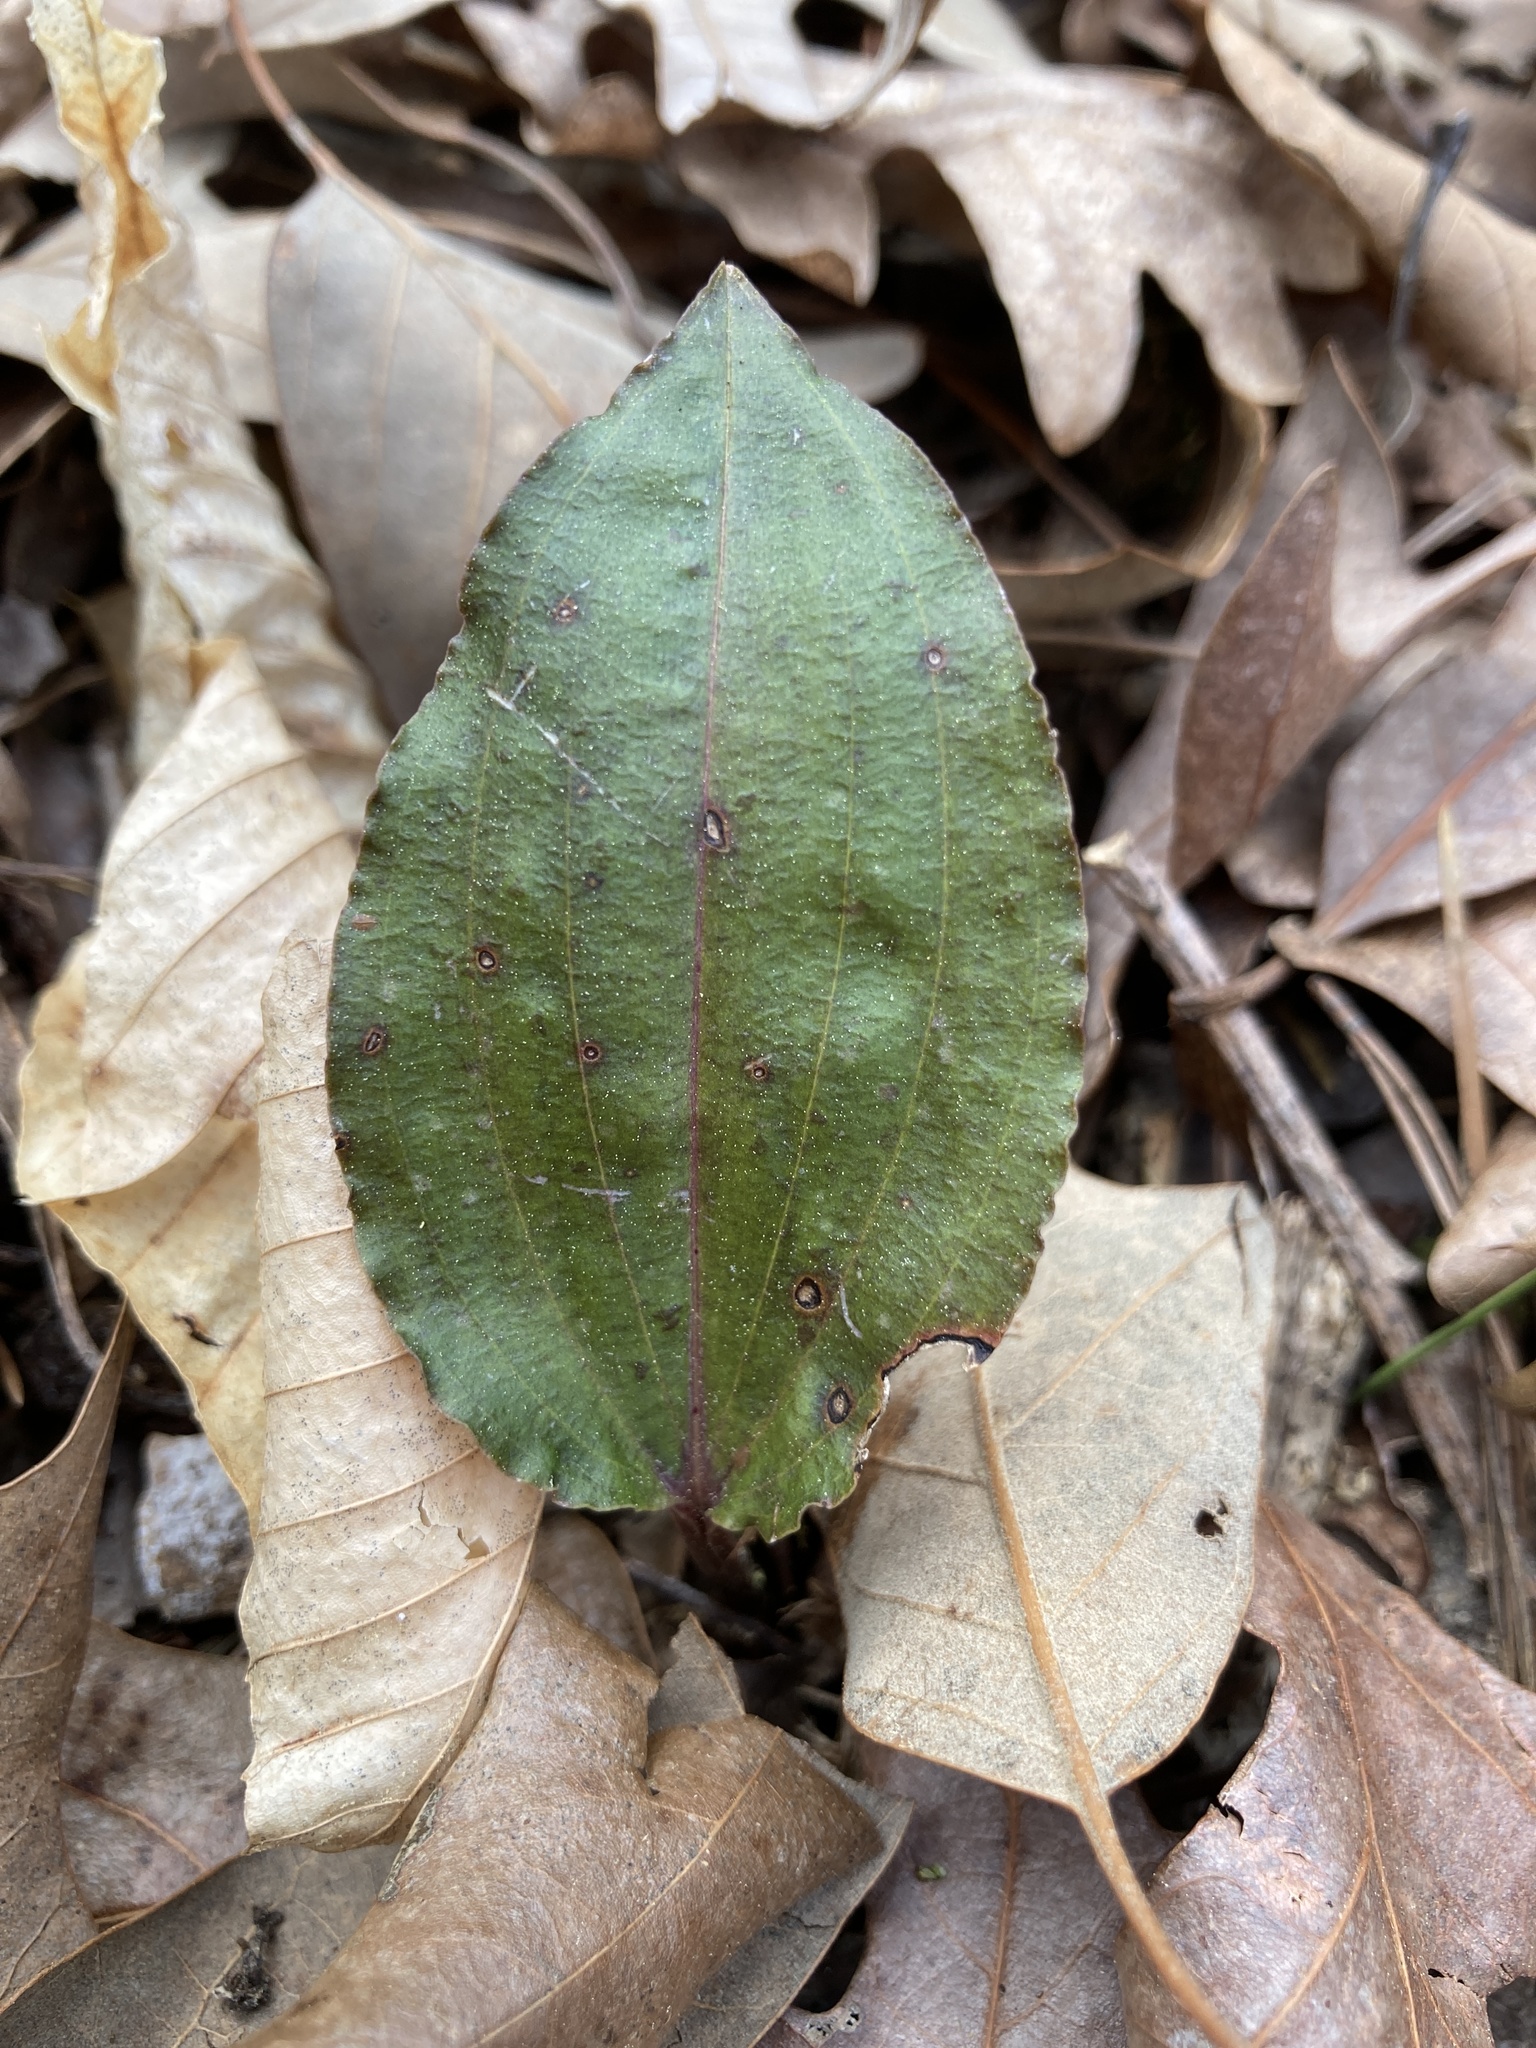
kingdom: Plantae
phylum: Tracheophyta
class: Liliopsida
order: Asparagales
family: Orchidaceae
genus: Tipularia
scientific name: Tipularia discolor
